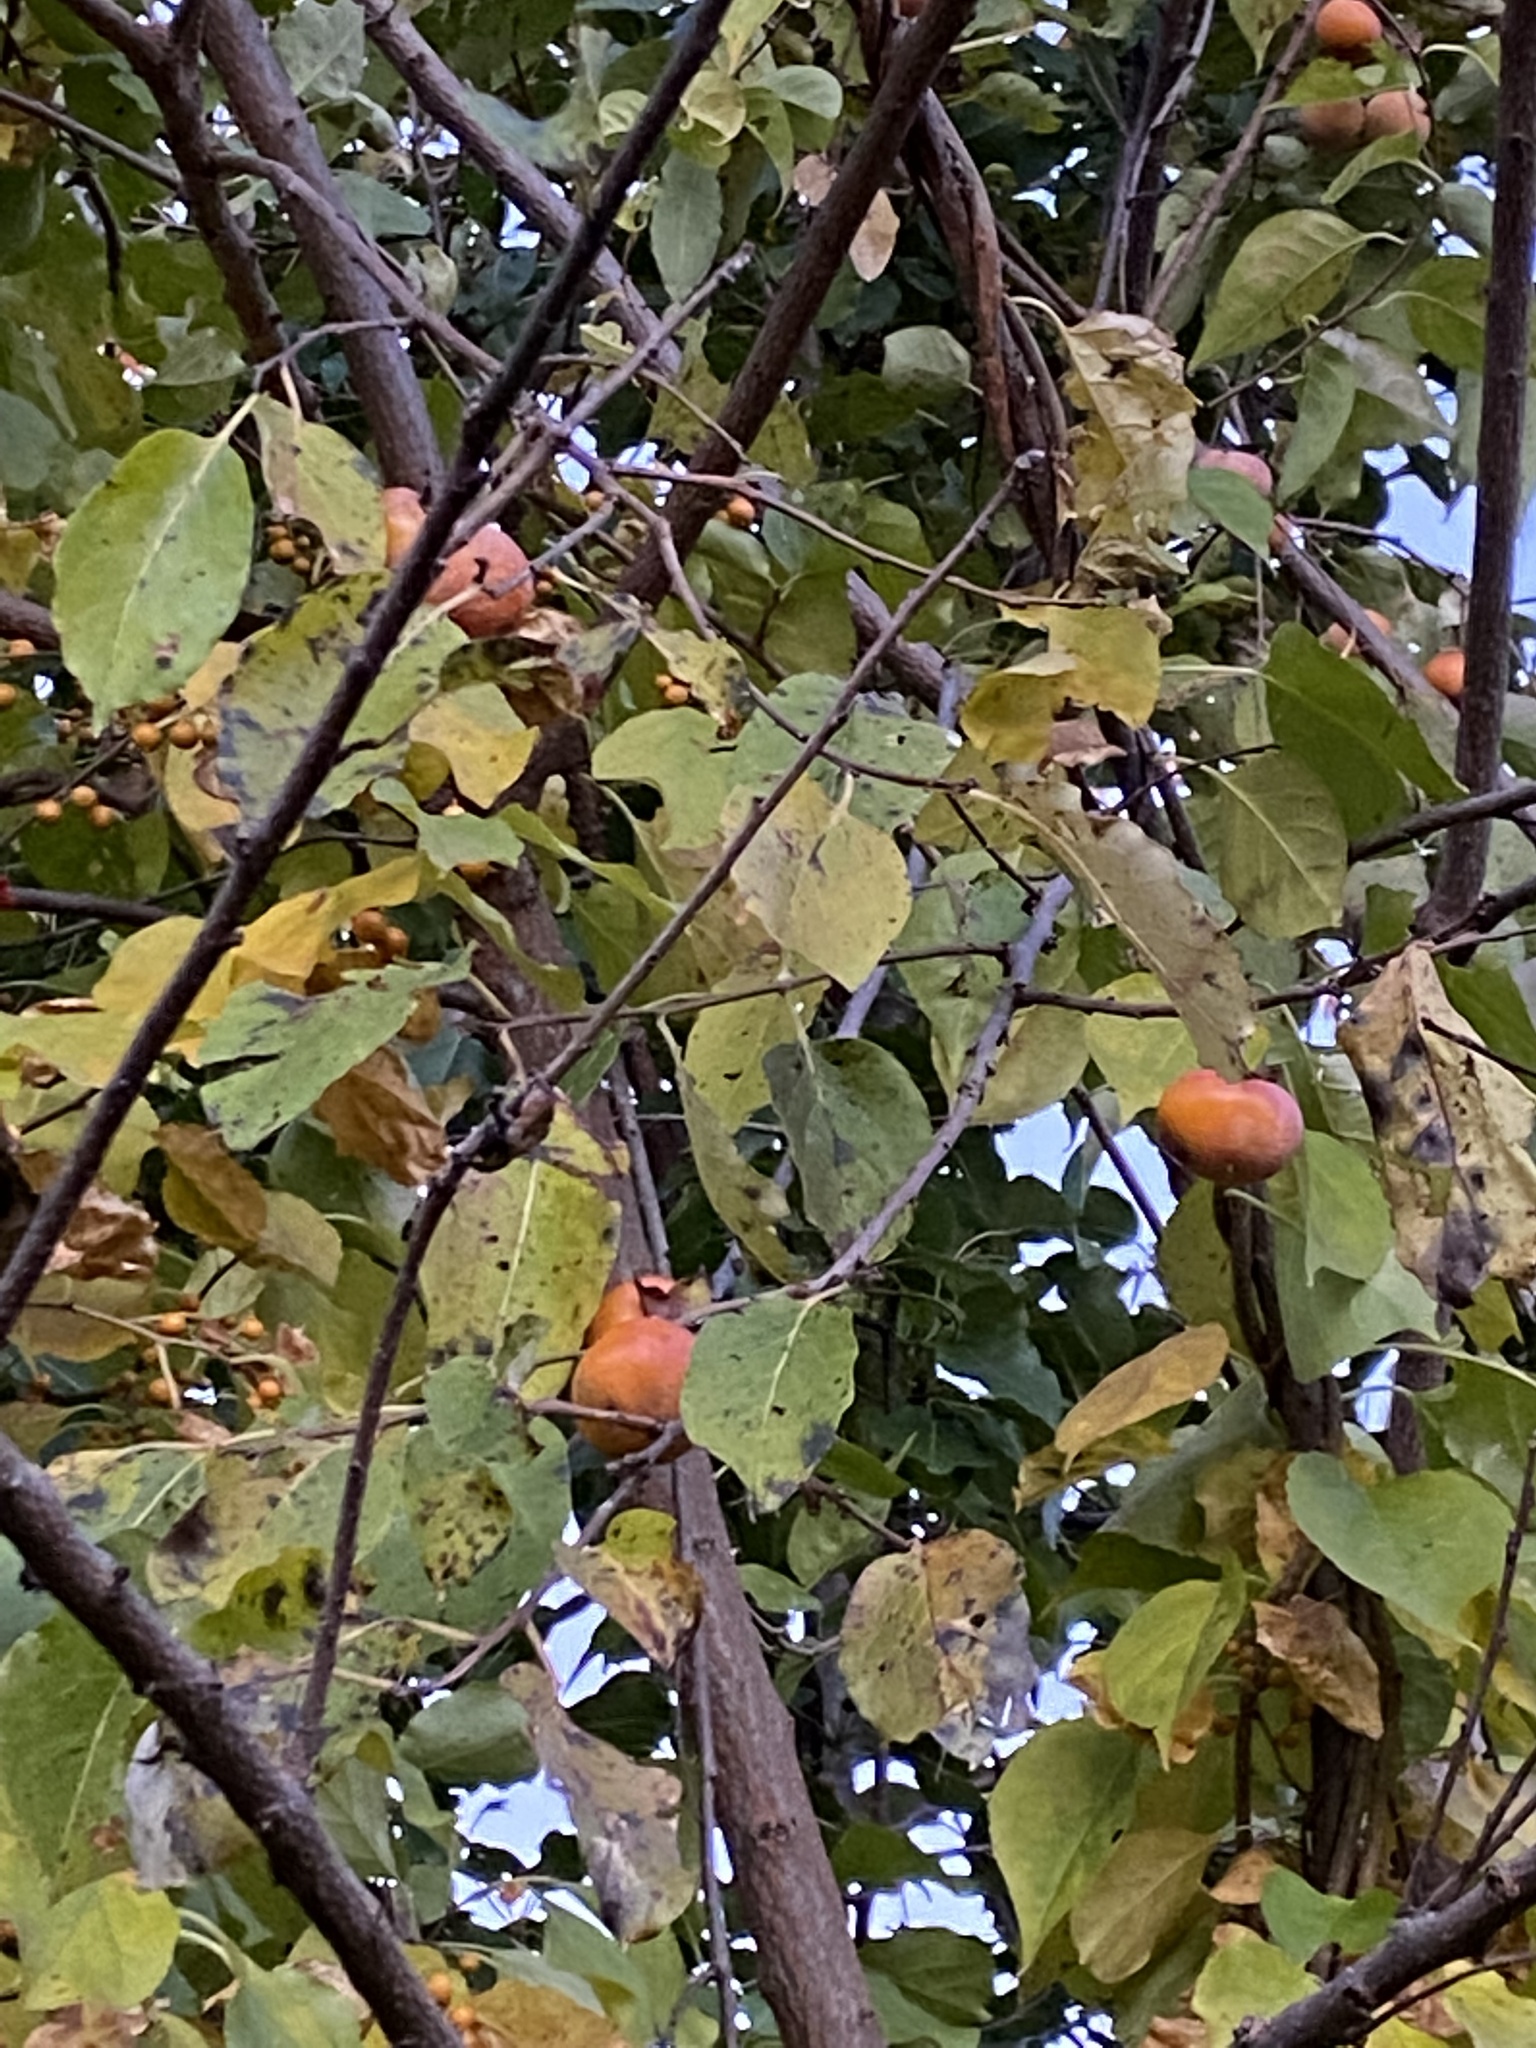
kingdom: Plantae
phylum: Tracheophyta
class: Magnoliopsida
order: Ericales
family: Ebenaceae
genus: Diospyros
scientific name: Diospyros virginiana
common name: Persimmon
